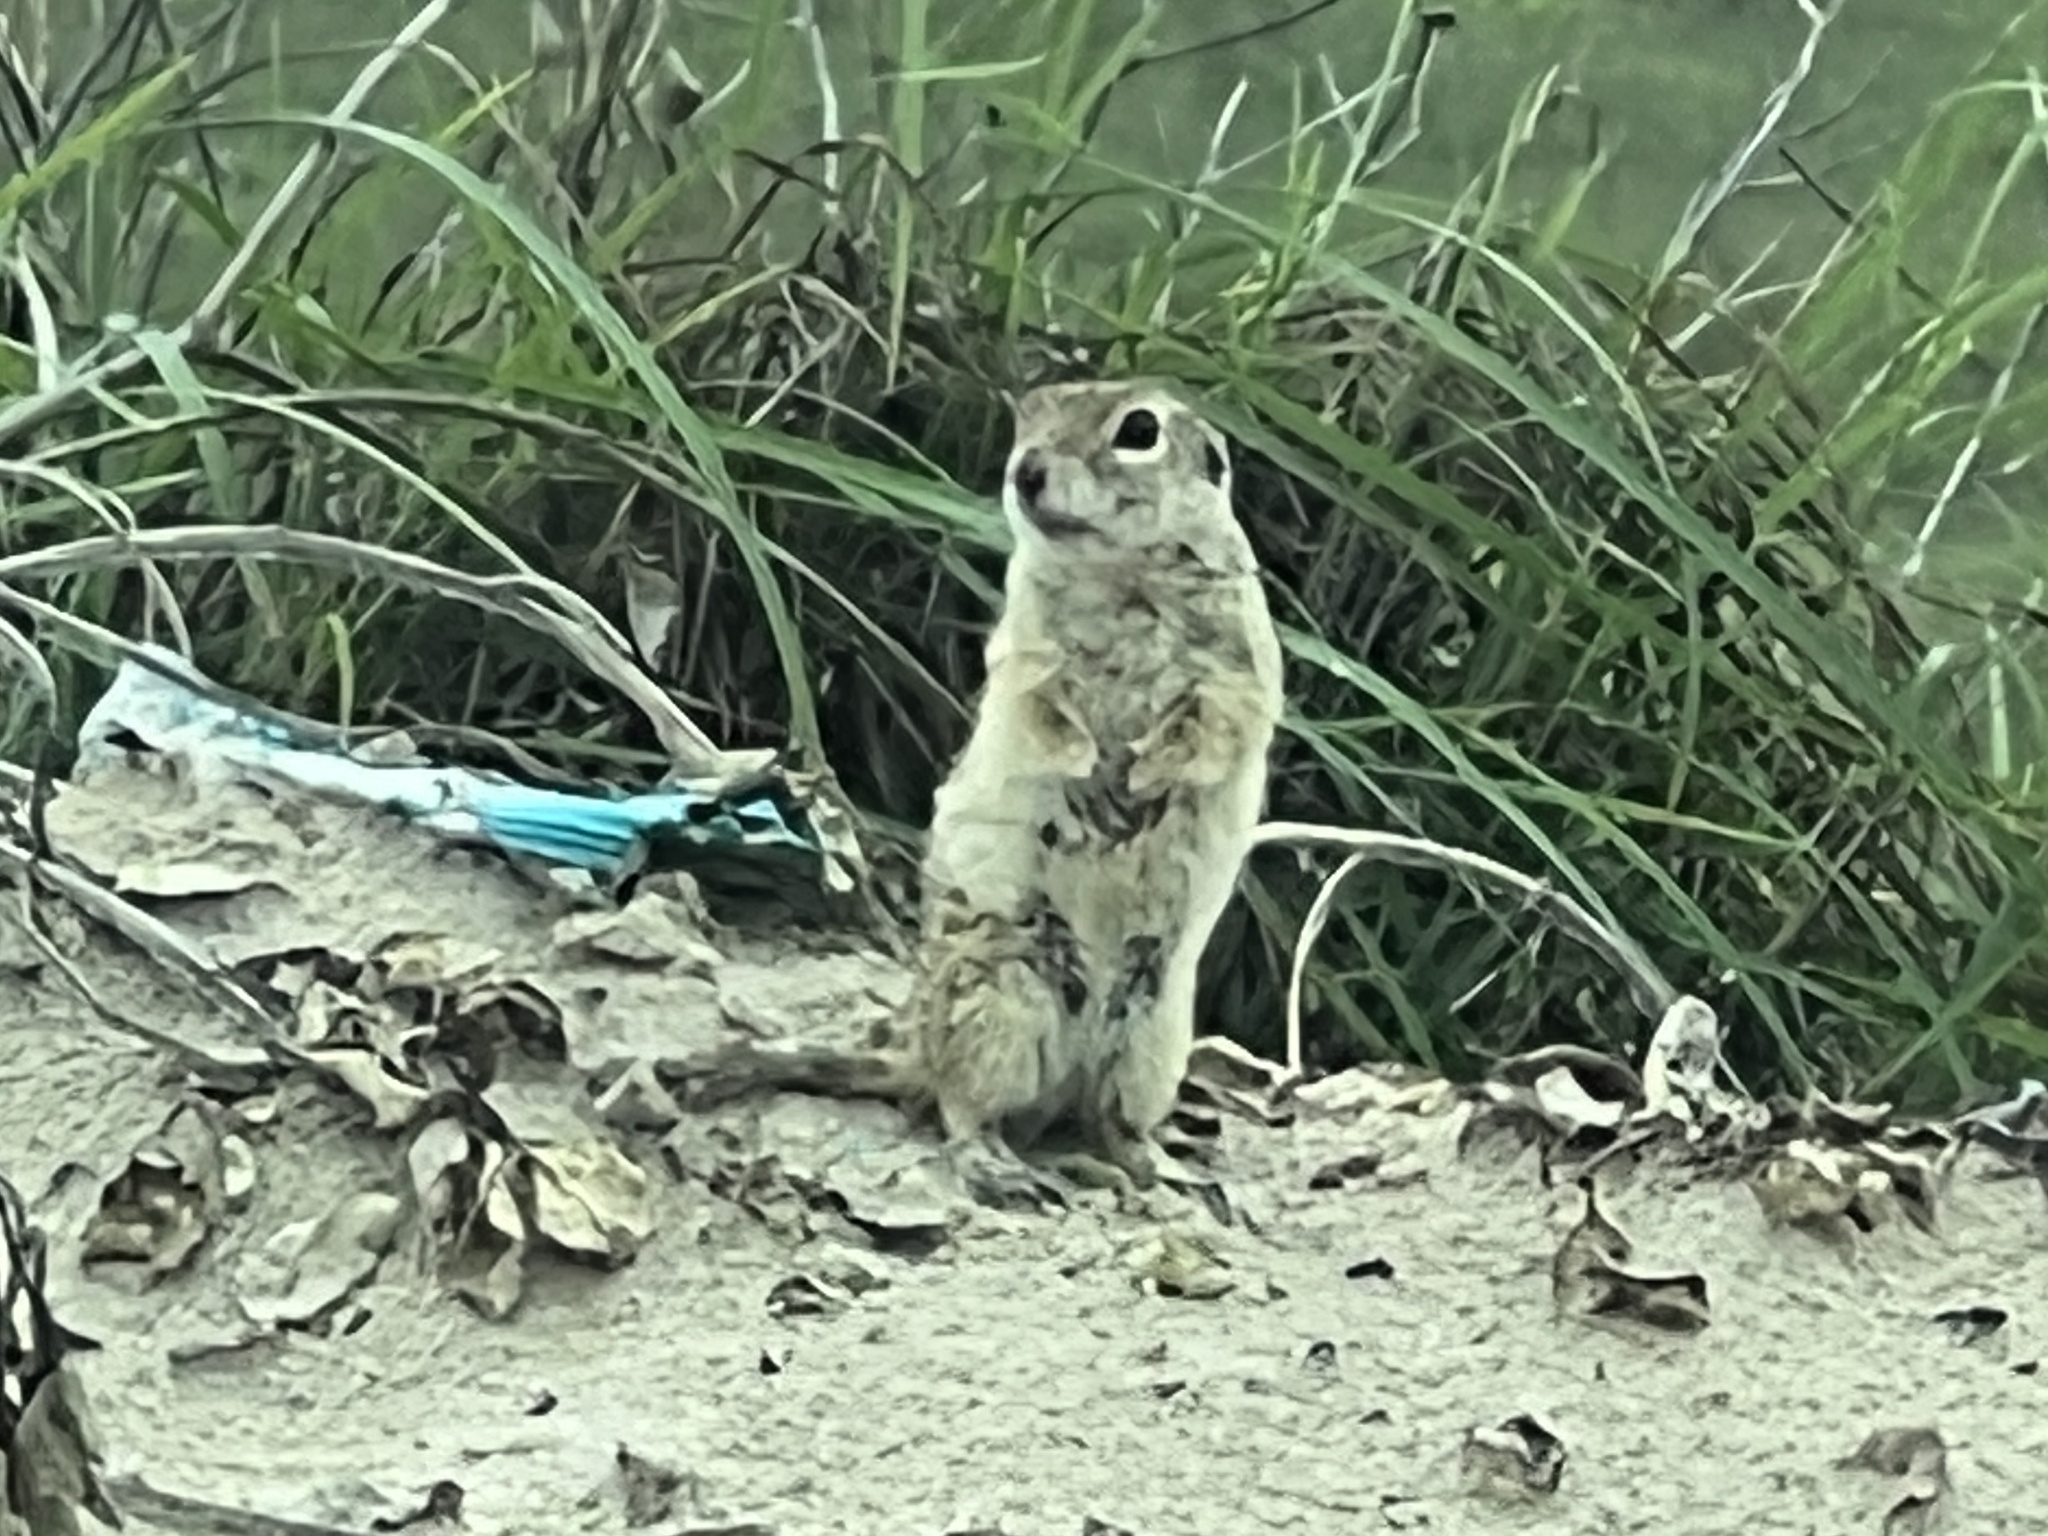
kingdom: Animalia
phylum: Chordata
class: Mammalia
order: Rodentia
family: Sciuridae
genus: Xerospermophilus
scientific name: Xerospermophilus spilosoma
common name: Spotted ground squirrel
